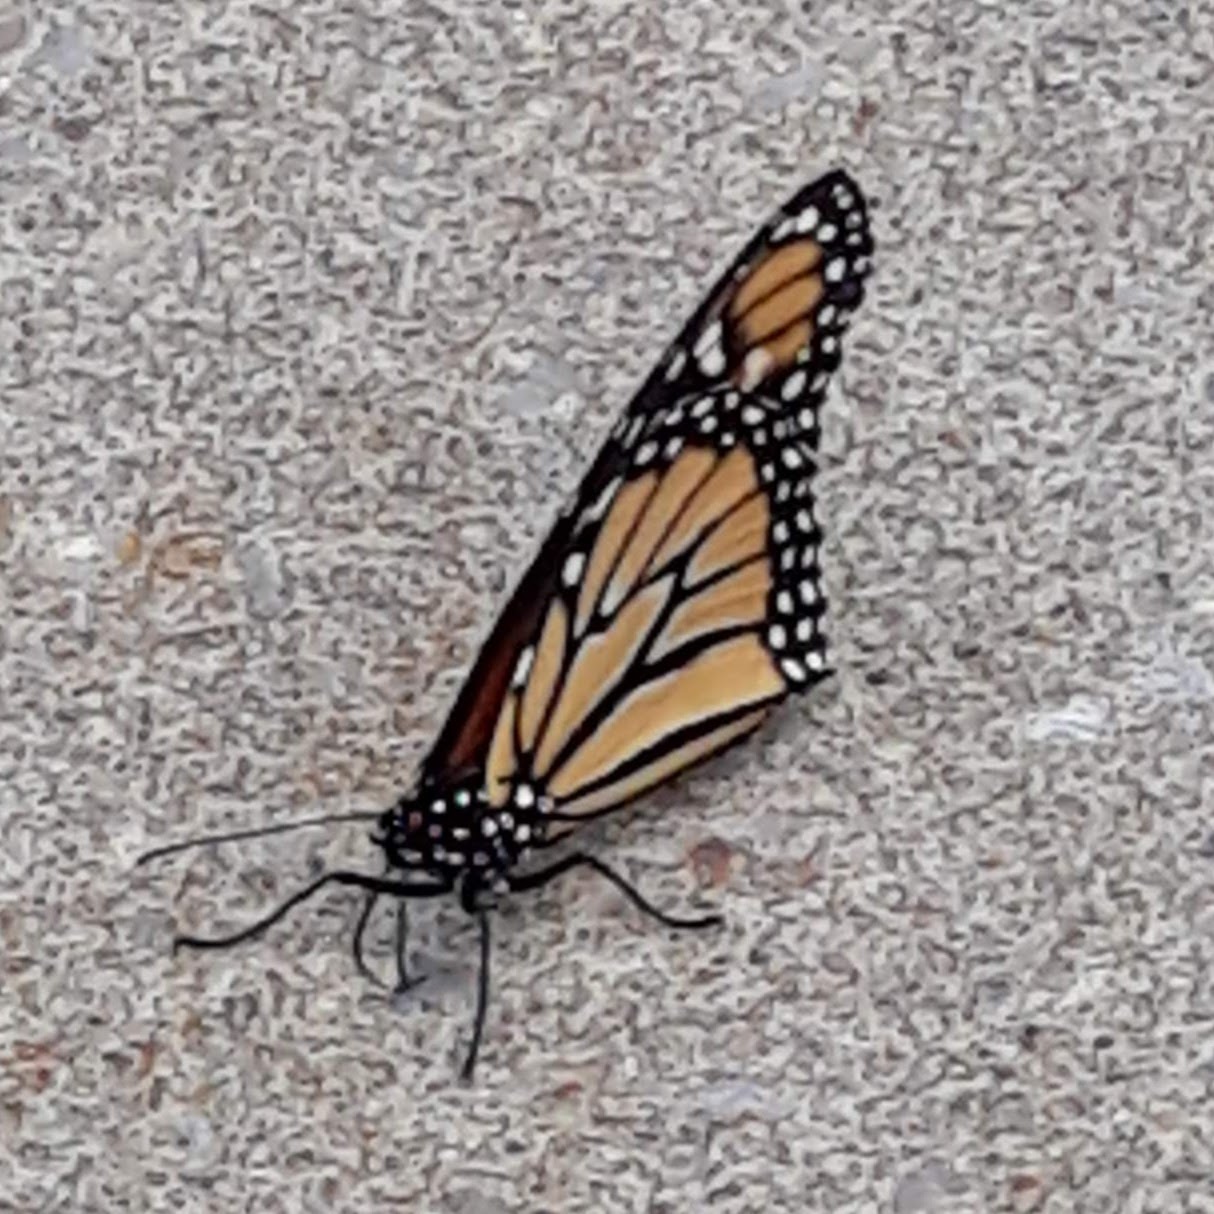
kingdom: Animalia
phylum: Arthropoda
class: Insecta
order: Lepidoptera
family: Nymphalidae
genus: Danaus
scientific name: Danaus plexippus
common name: Monarch
